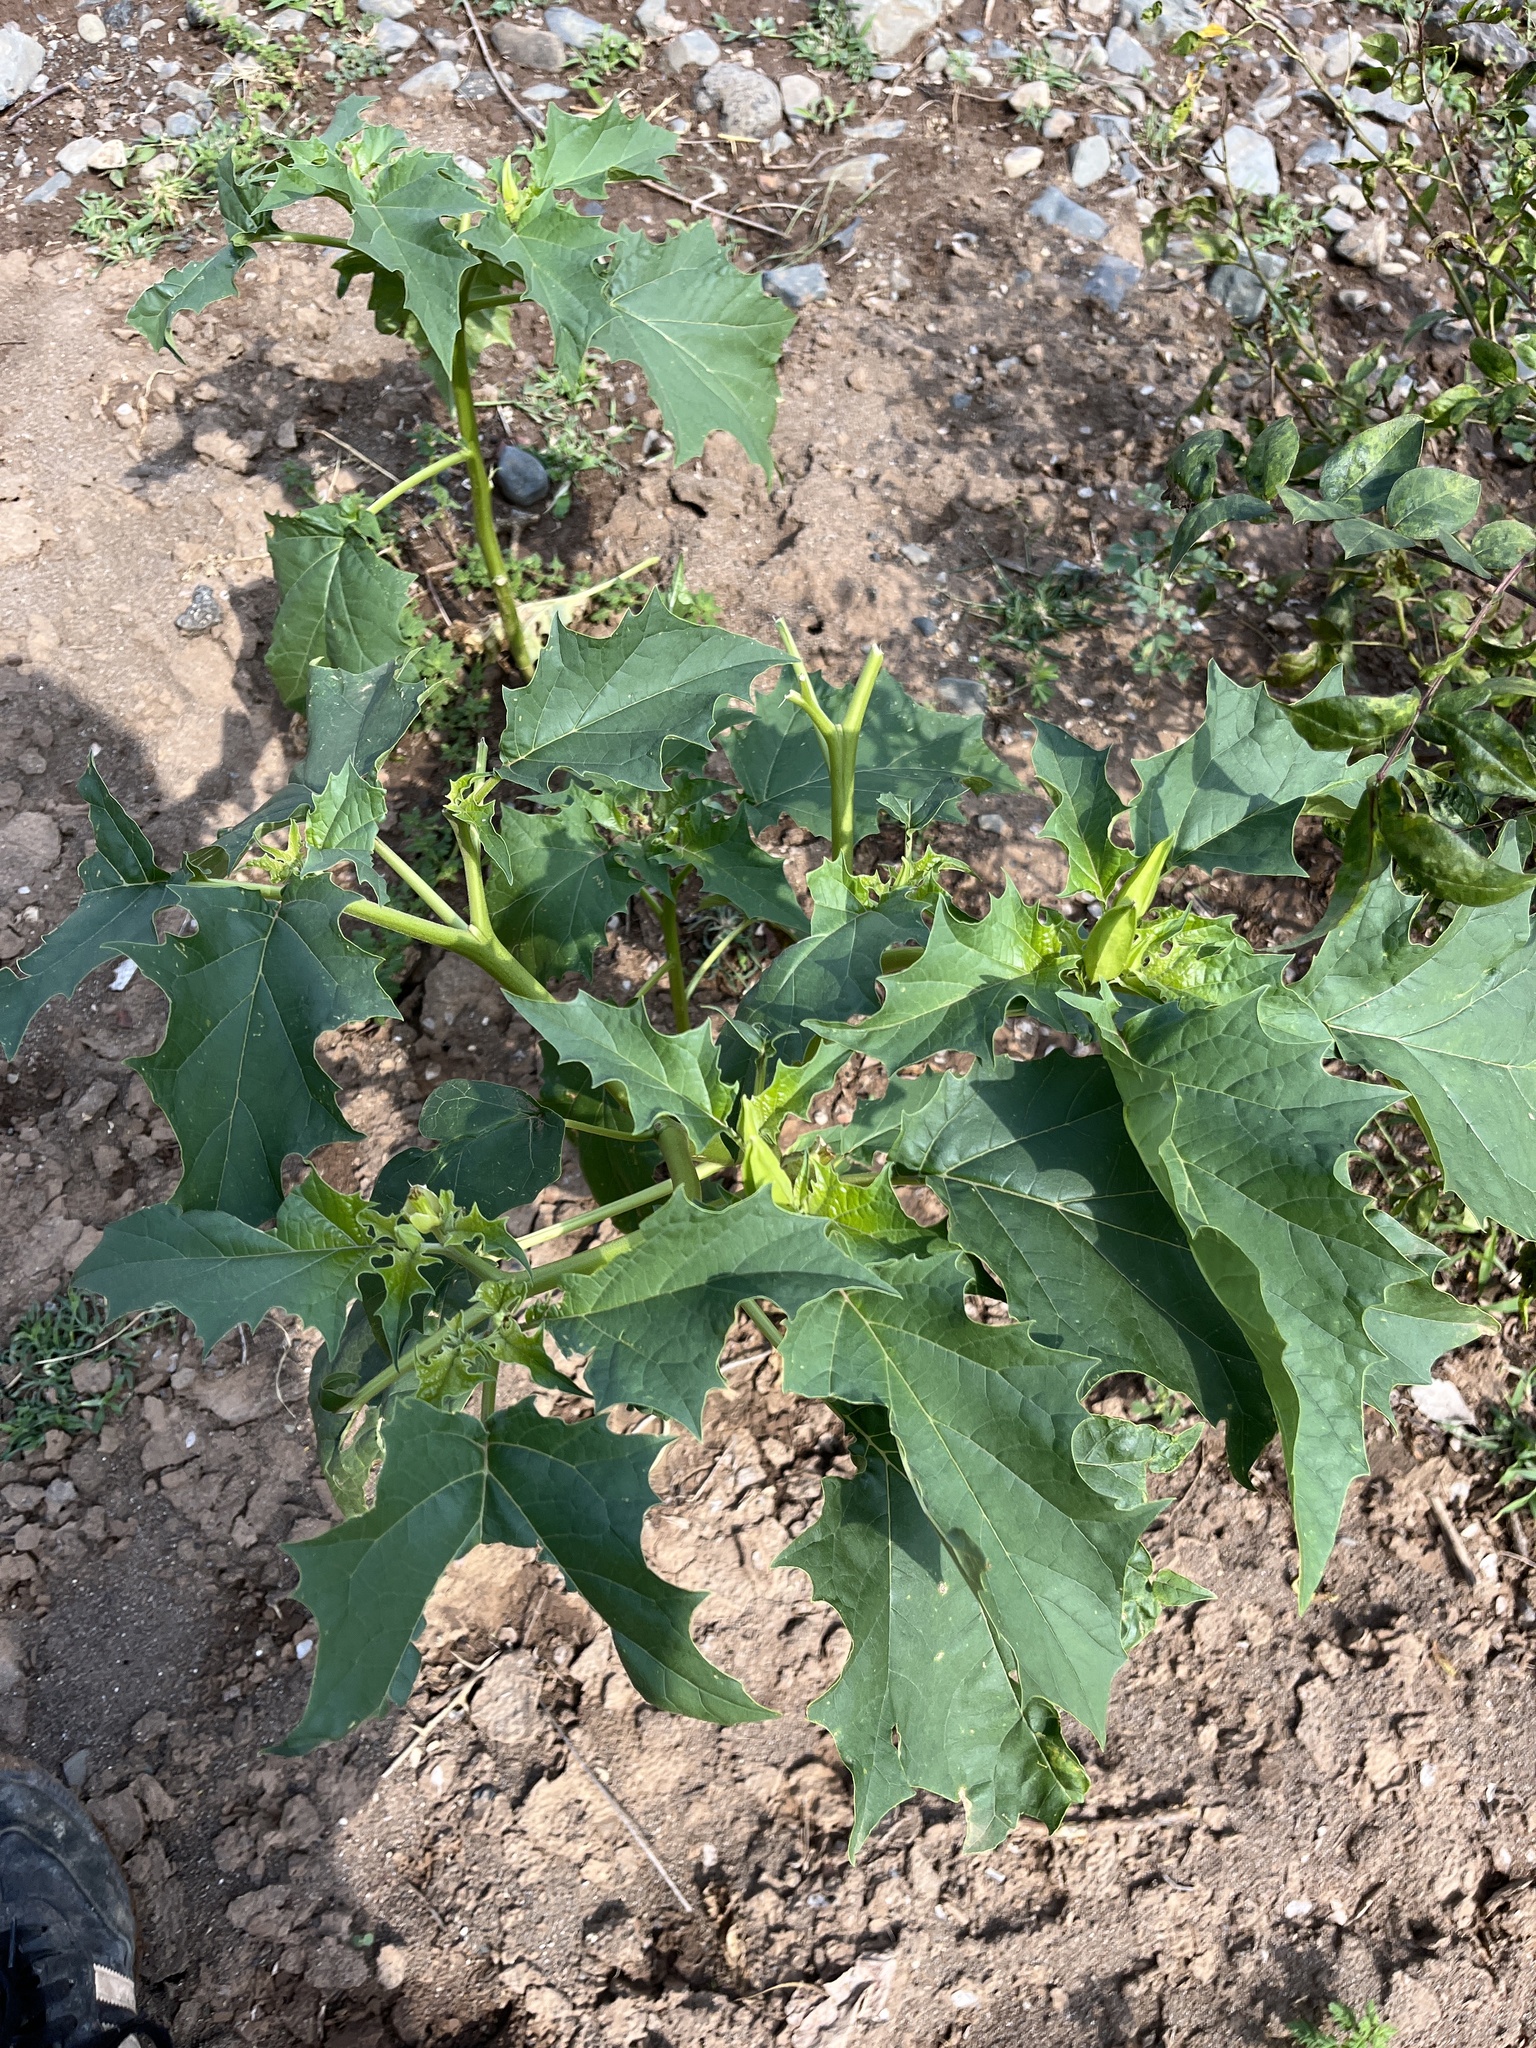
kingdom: Plantae
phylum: Tracheophyta
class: Magnoliopsida
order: Solanales
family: Solanaceae
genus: Datura
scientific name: Datura stramonium
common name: Thorn-apple
